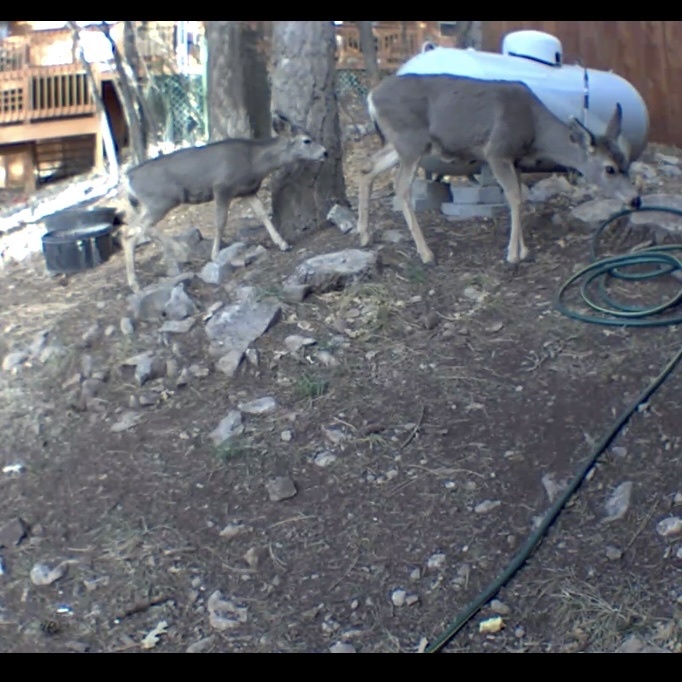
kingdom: Animalia
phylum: Chordata
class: Mammalia
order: Artiodactyla
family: Cervidae
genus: Odocoileus
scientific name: Odocoileus hemionus
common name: Mule deer
